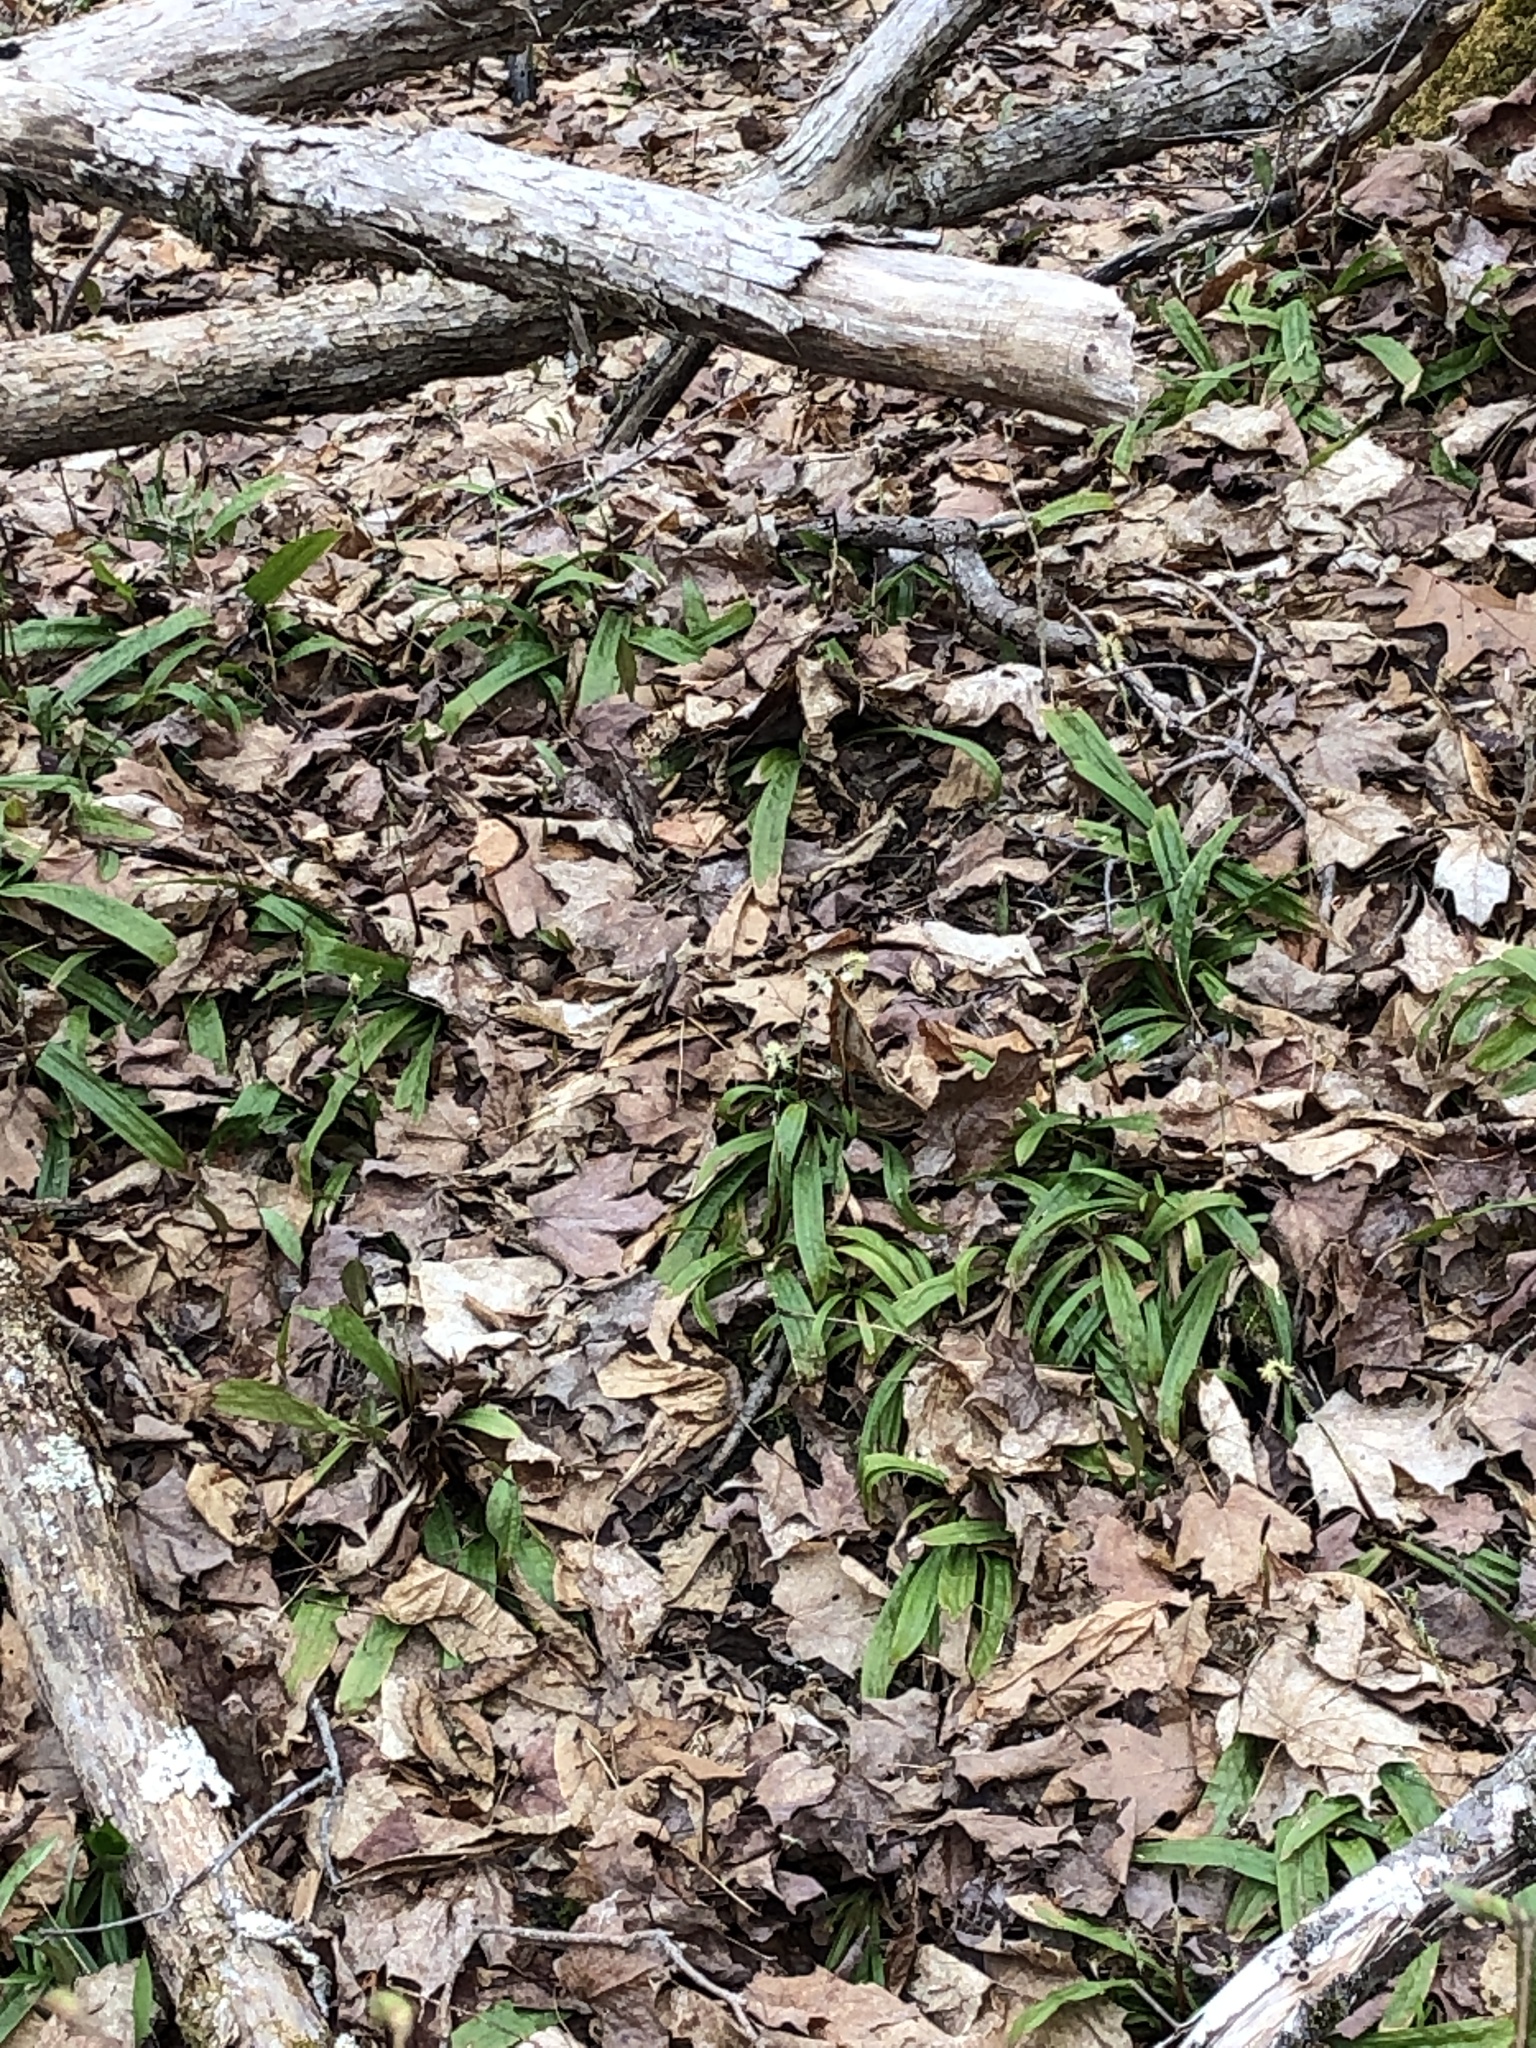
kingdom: Plantae
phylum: Tracheophyta
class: Liliopsida
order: Poales
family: Cyperaceae
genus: Carex
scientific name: Carex plantaginea
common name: Plantain-leaved sedge
